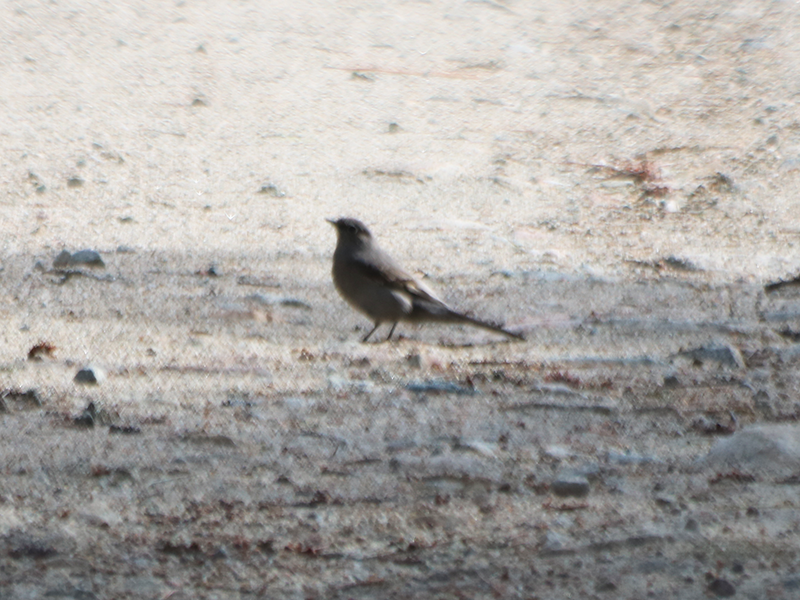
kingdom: Animalia
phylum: Chordata
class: Aves
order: Passeriformes
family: Turdidae
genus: Myadestes
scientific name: Myadestes townsendi
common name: Townsend's solitaire
